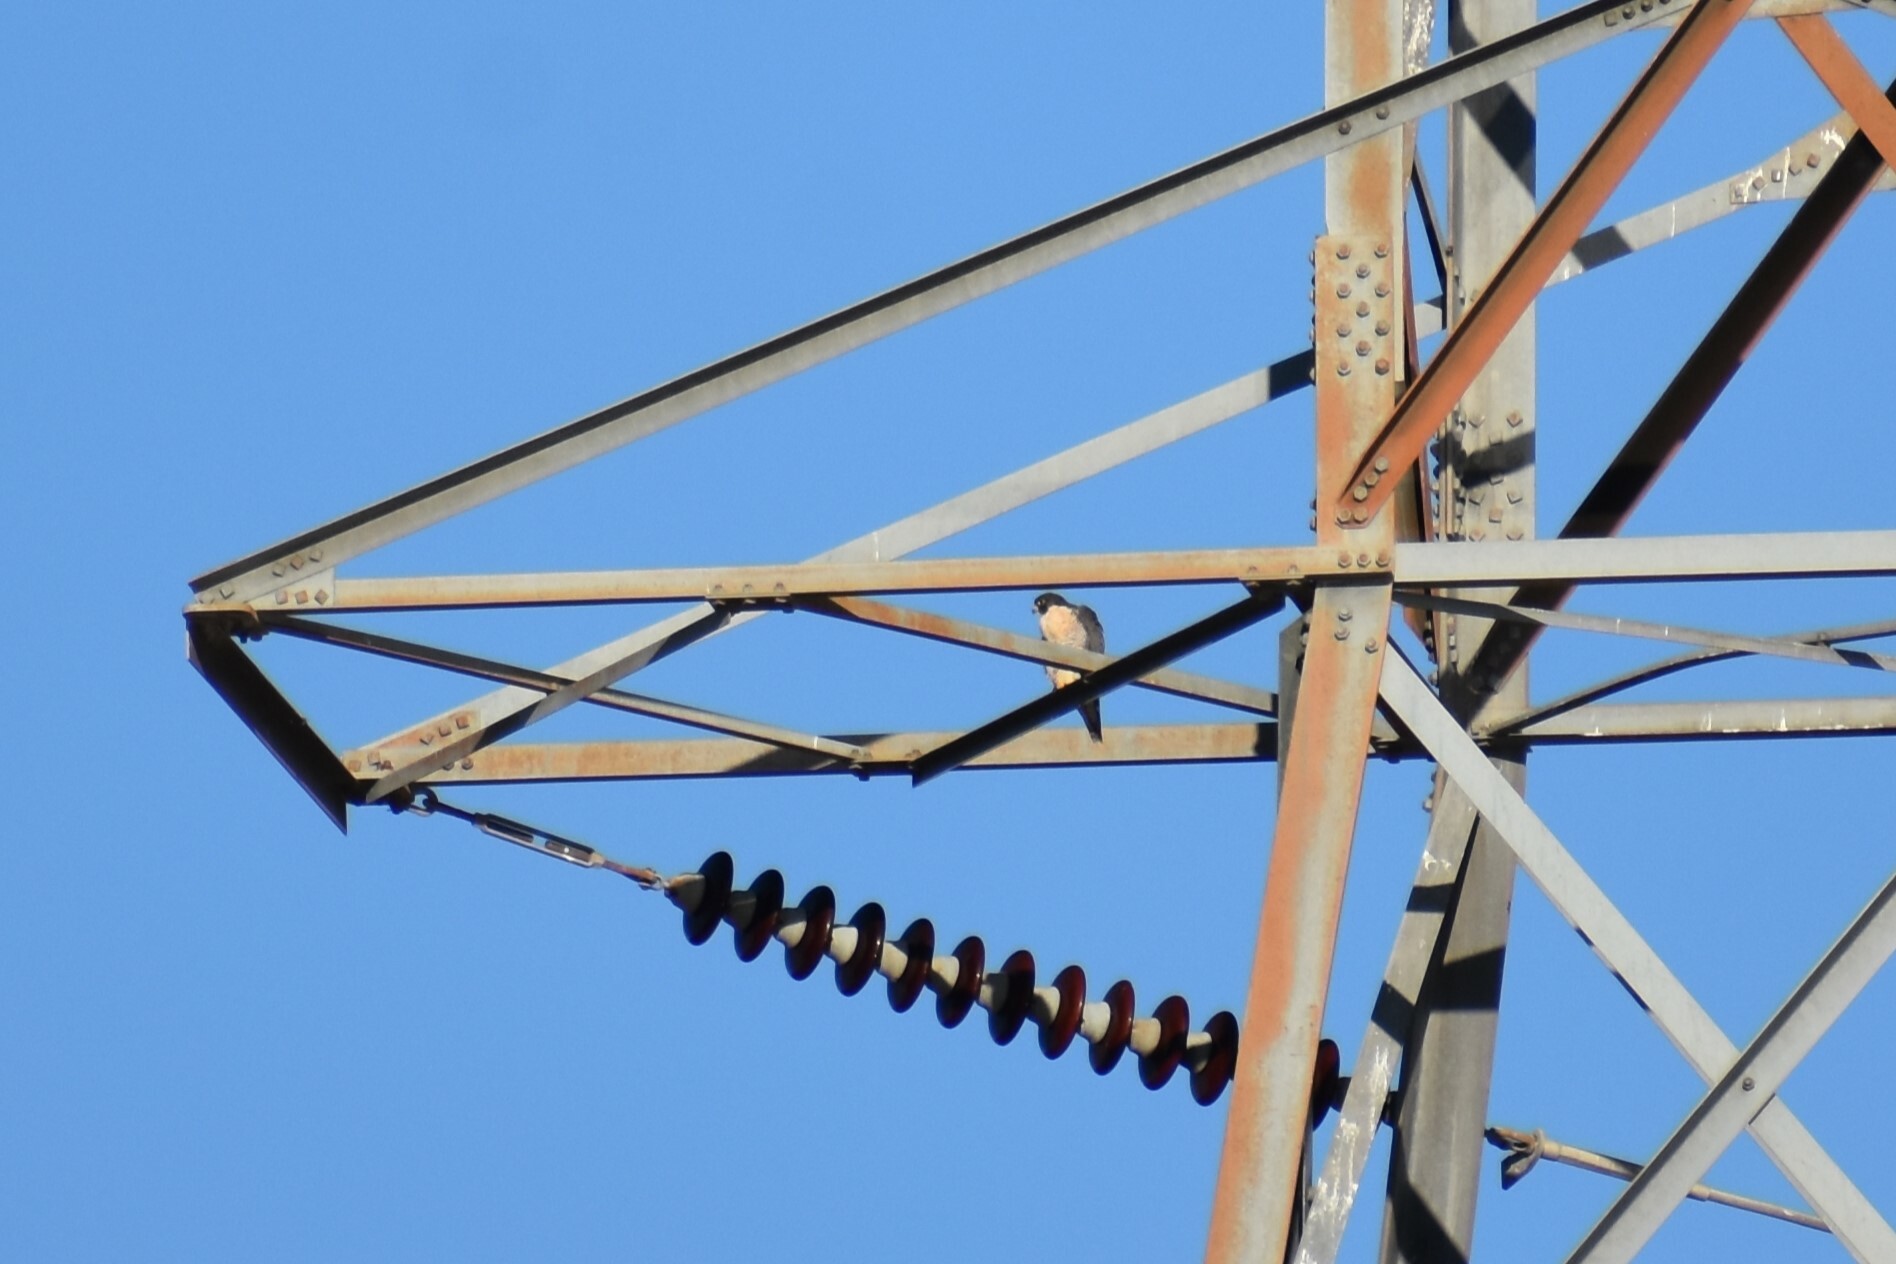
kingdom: Animalia
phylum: Chordata
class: Aves
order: Falconiformes
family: Falconidae
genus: Falco
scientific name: Falco peregrinus
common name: Peregrine falcon
